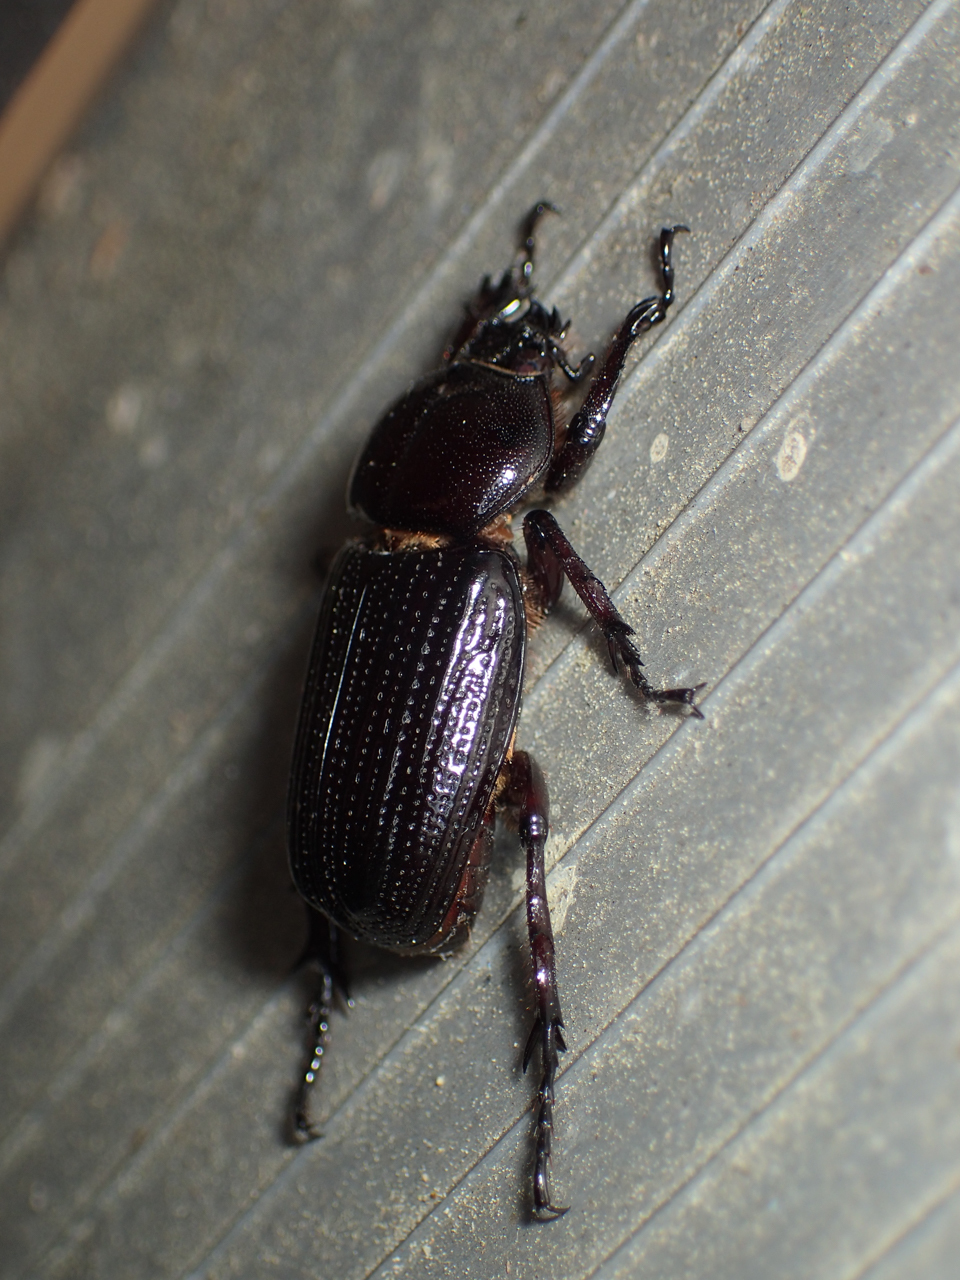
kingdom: Animalia
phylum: Arthropoda
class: Insecta
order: Coleoptera
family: Scarabaeidae
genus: Phileurus
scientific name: Phileurus valgus
